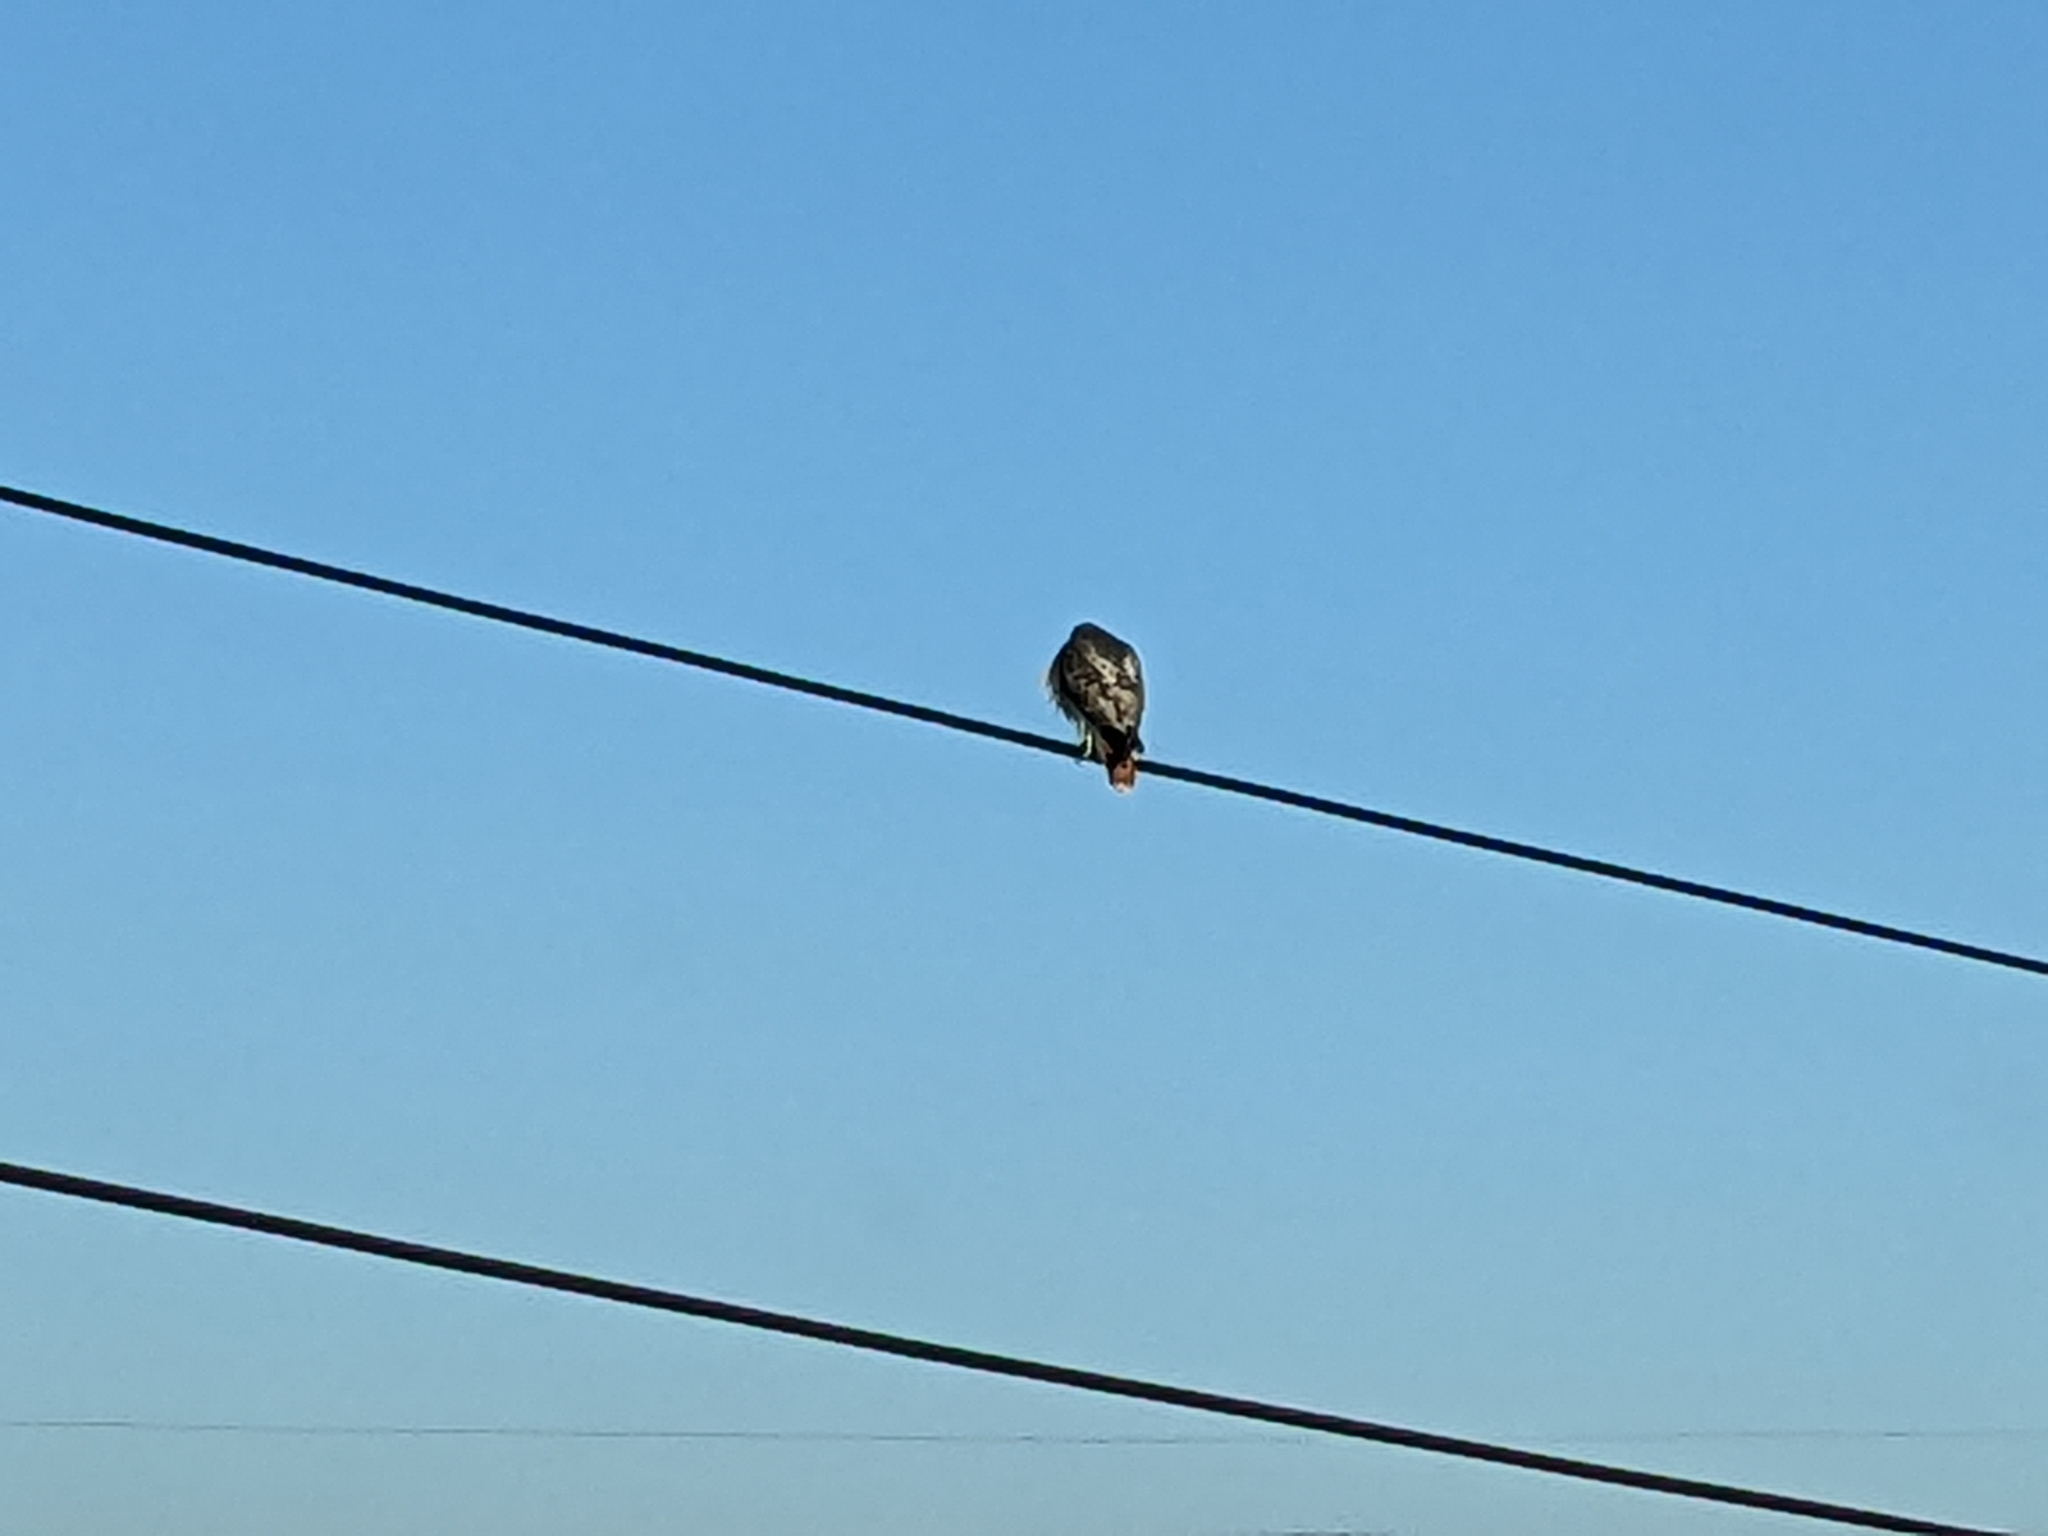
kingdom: Animalia
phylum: Chordata
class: Aves
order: Accipitriformes
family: Accipitridae
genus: Buteo
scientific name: Buteo jamaicensis
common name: Red-tailed hawk
